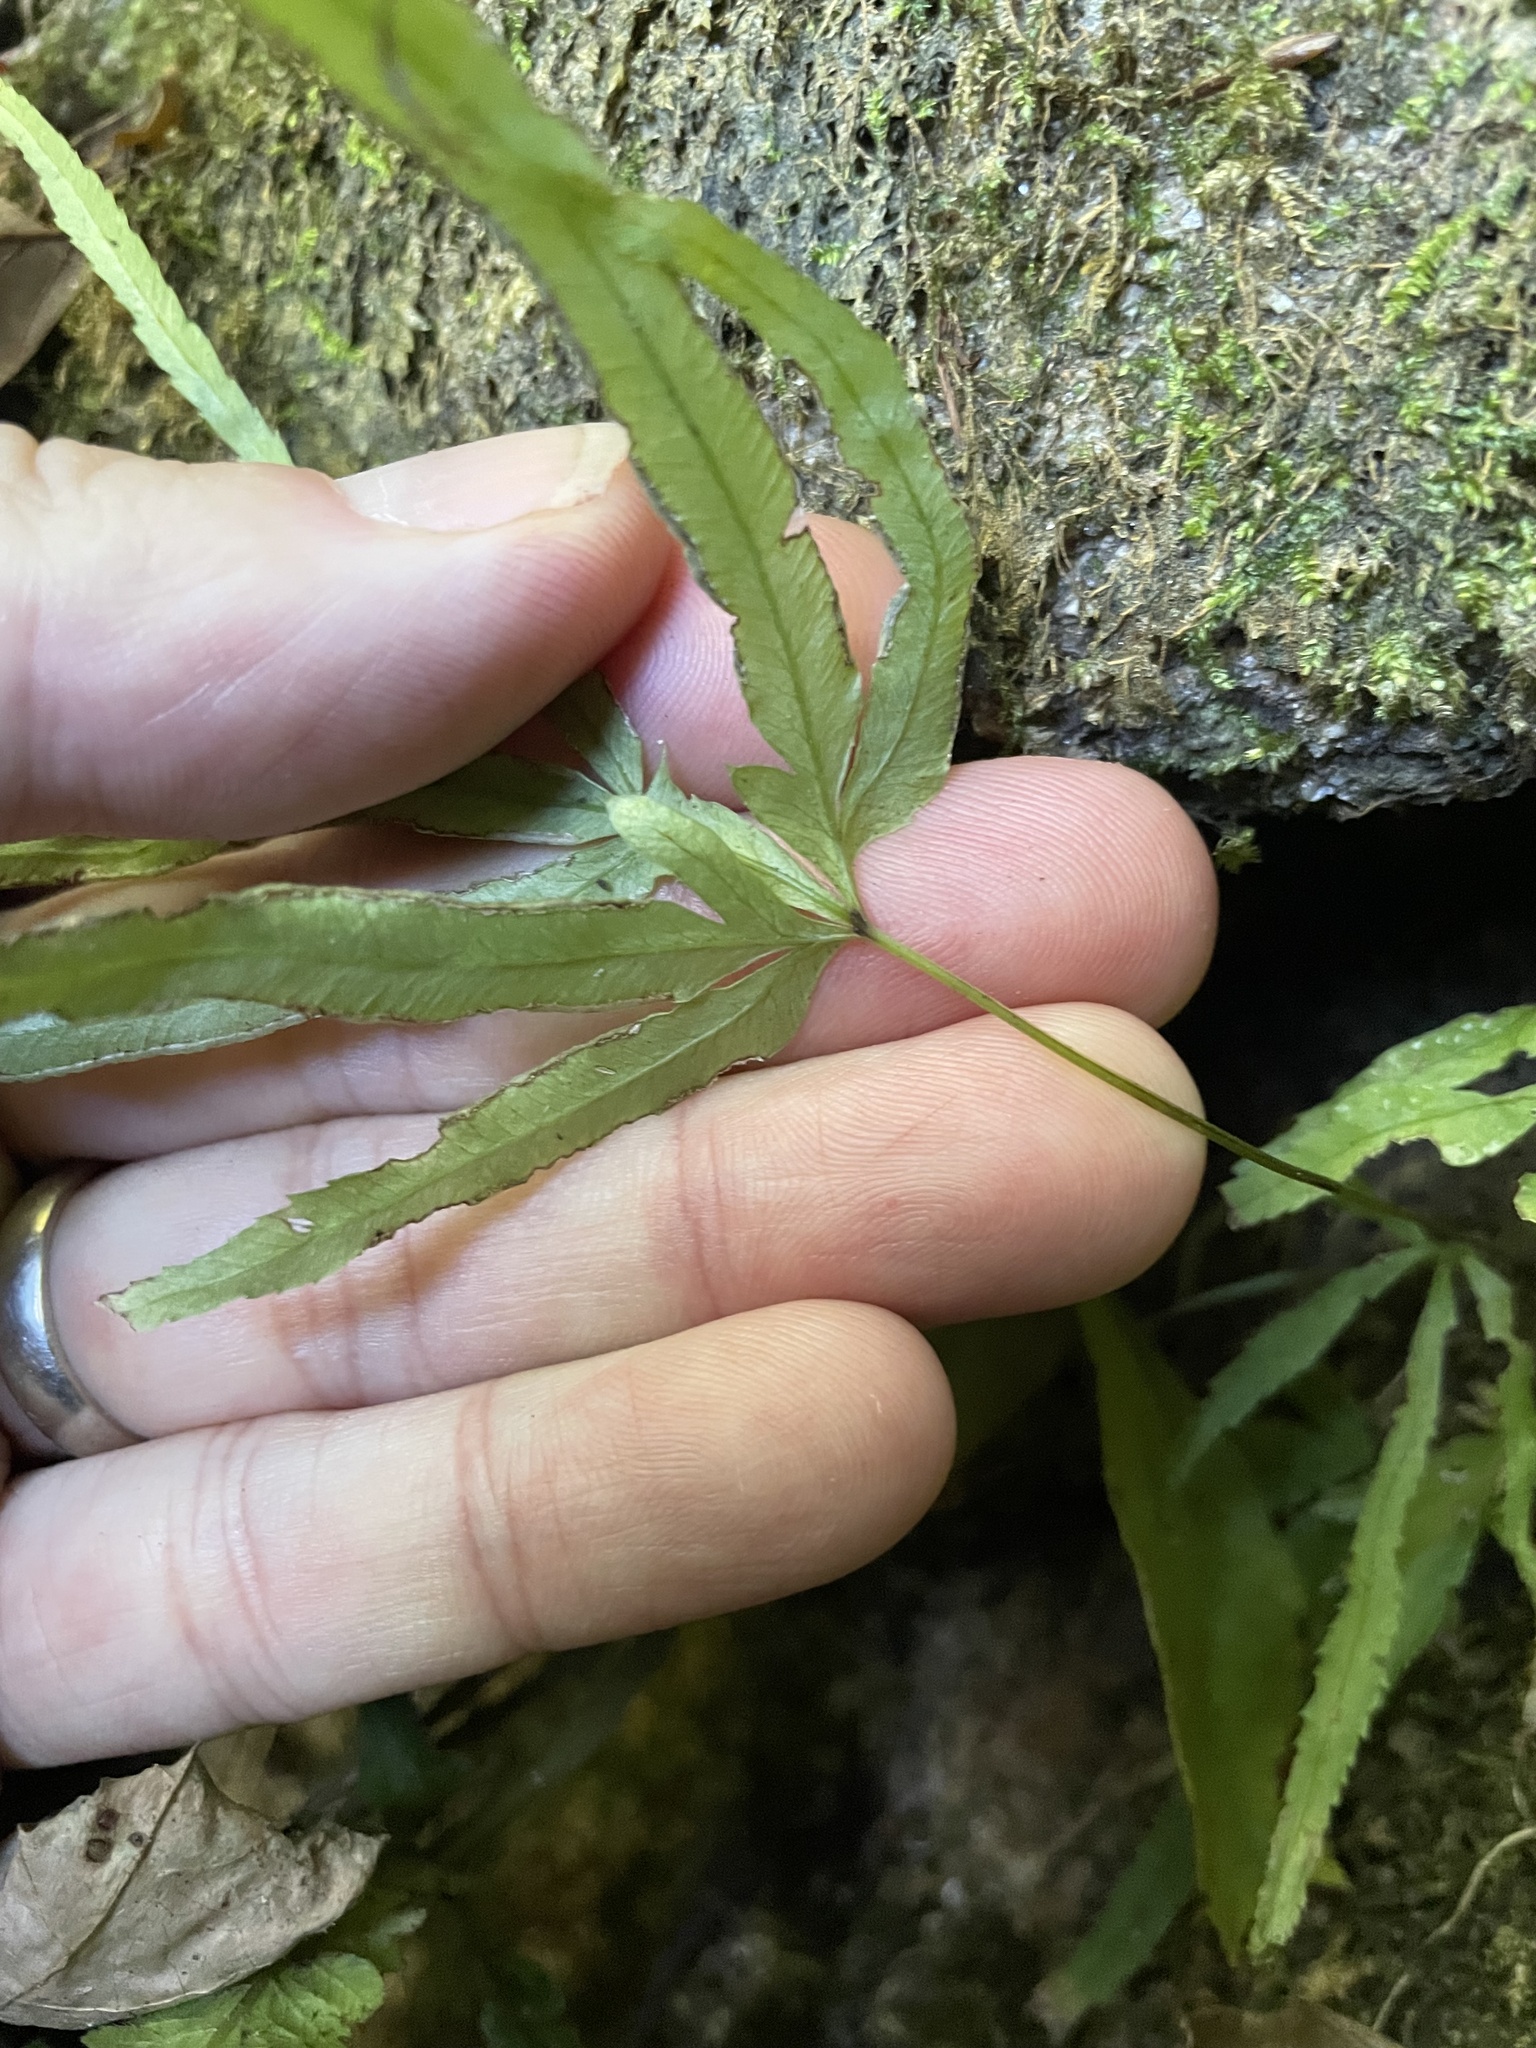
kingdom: Plantae
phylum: Tracheophyta
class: Polypodiopsida
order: Polypodiales
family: Pteridaceae
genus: Pteris
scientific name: Pteris multifida
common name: Spider brake
